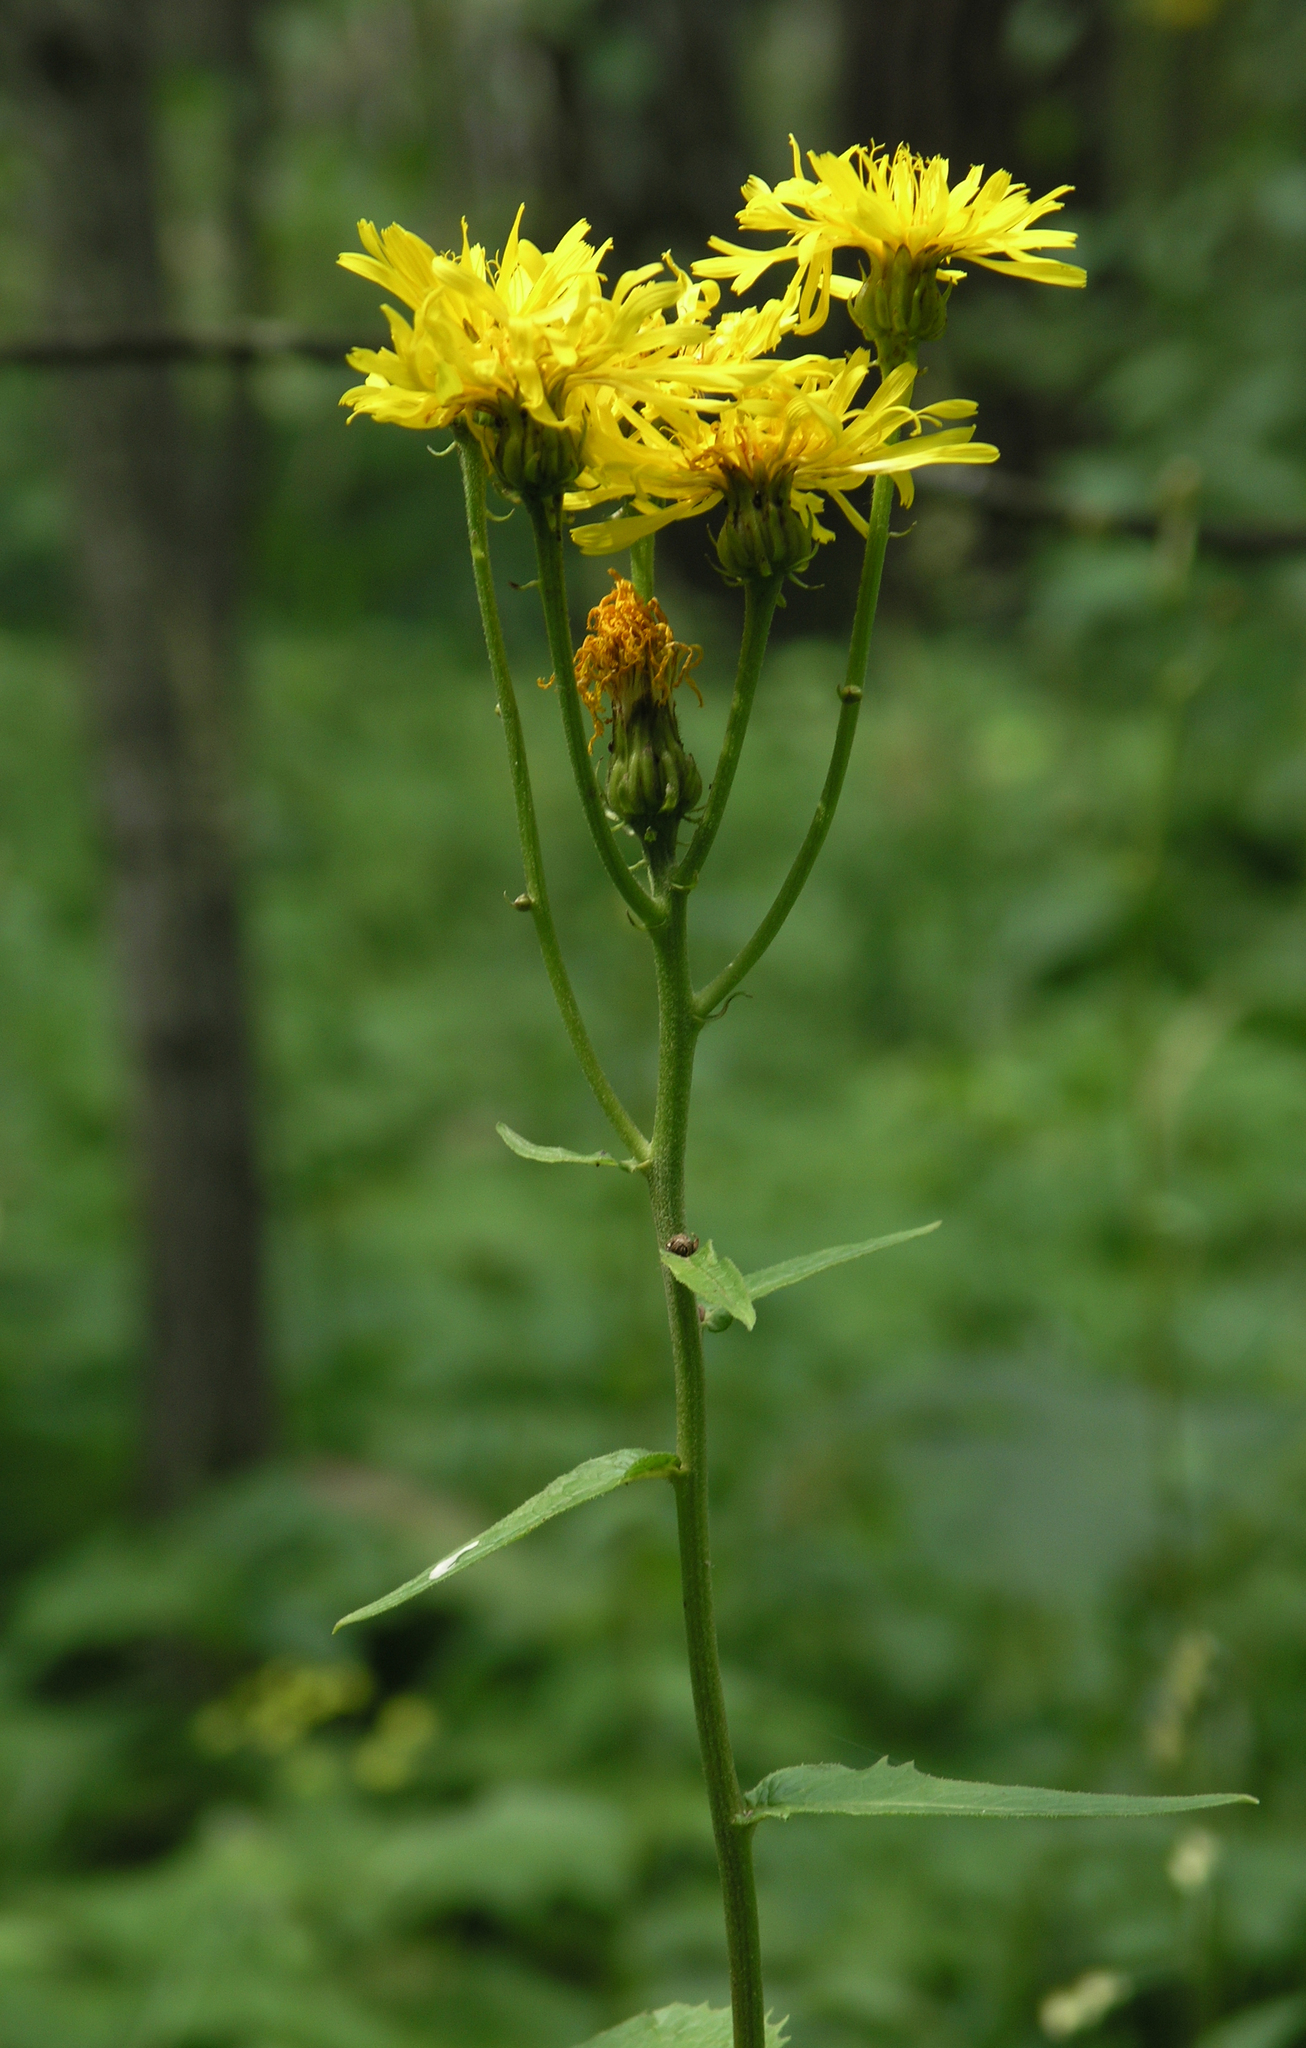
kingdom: Plantae
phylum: Tracheophyta
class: Magnoliopsida
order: Asterales
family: Asteraceae
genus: Crepis
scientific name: Crepis sibirica
